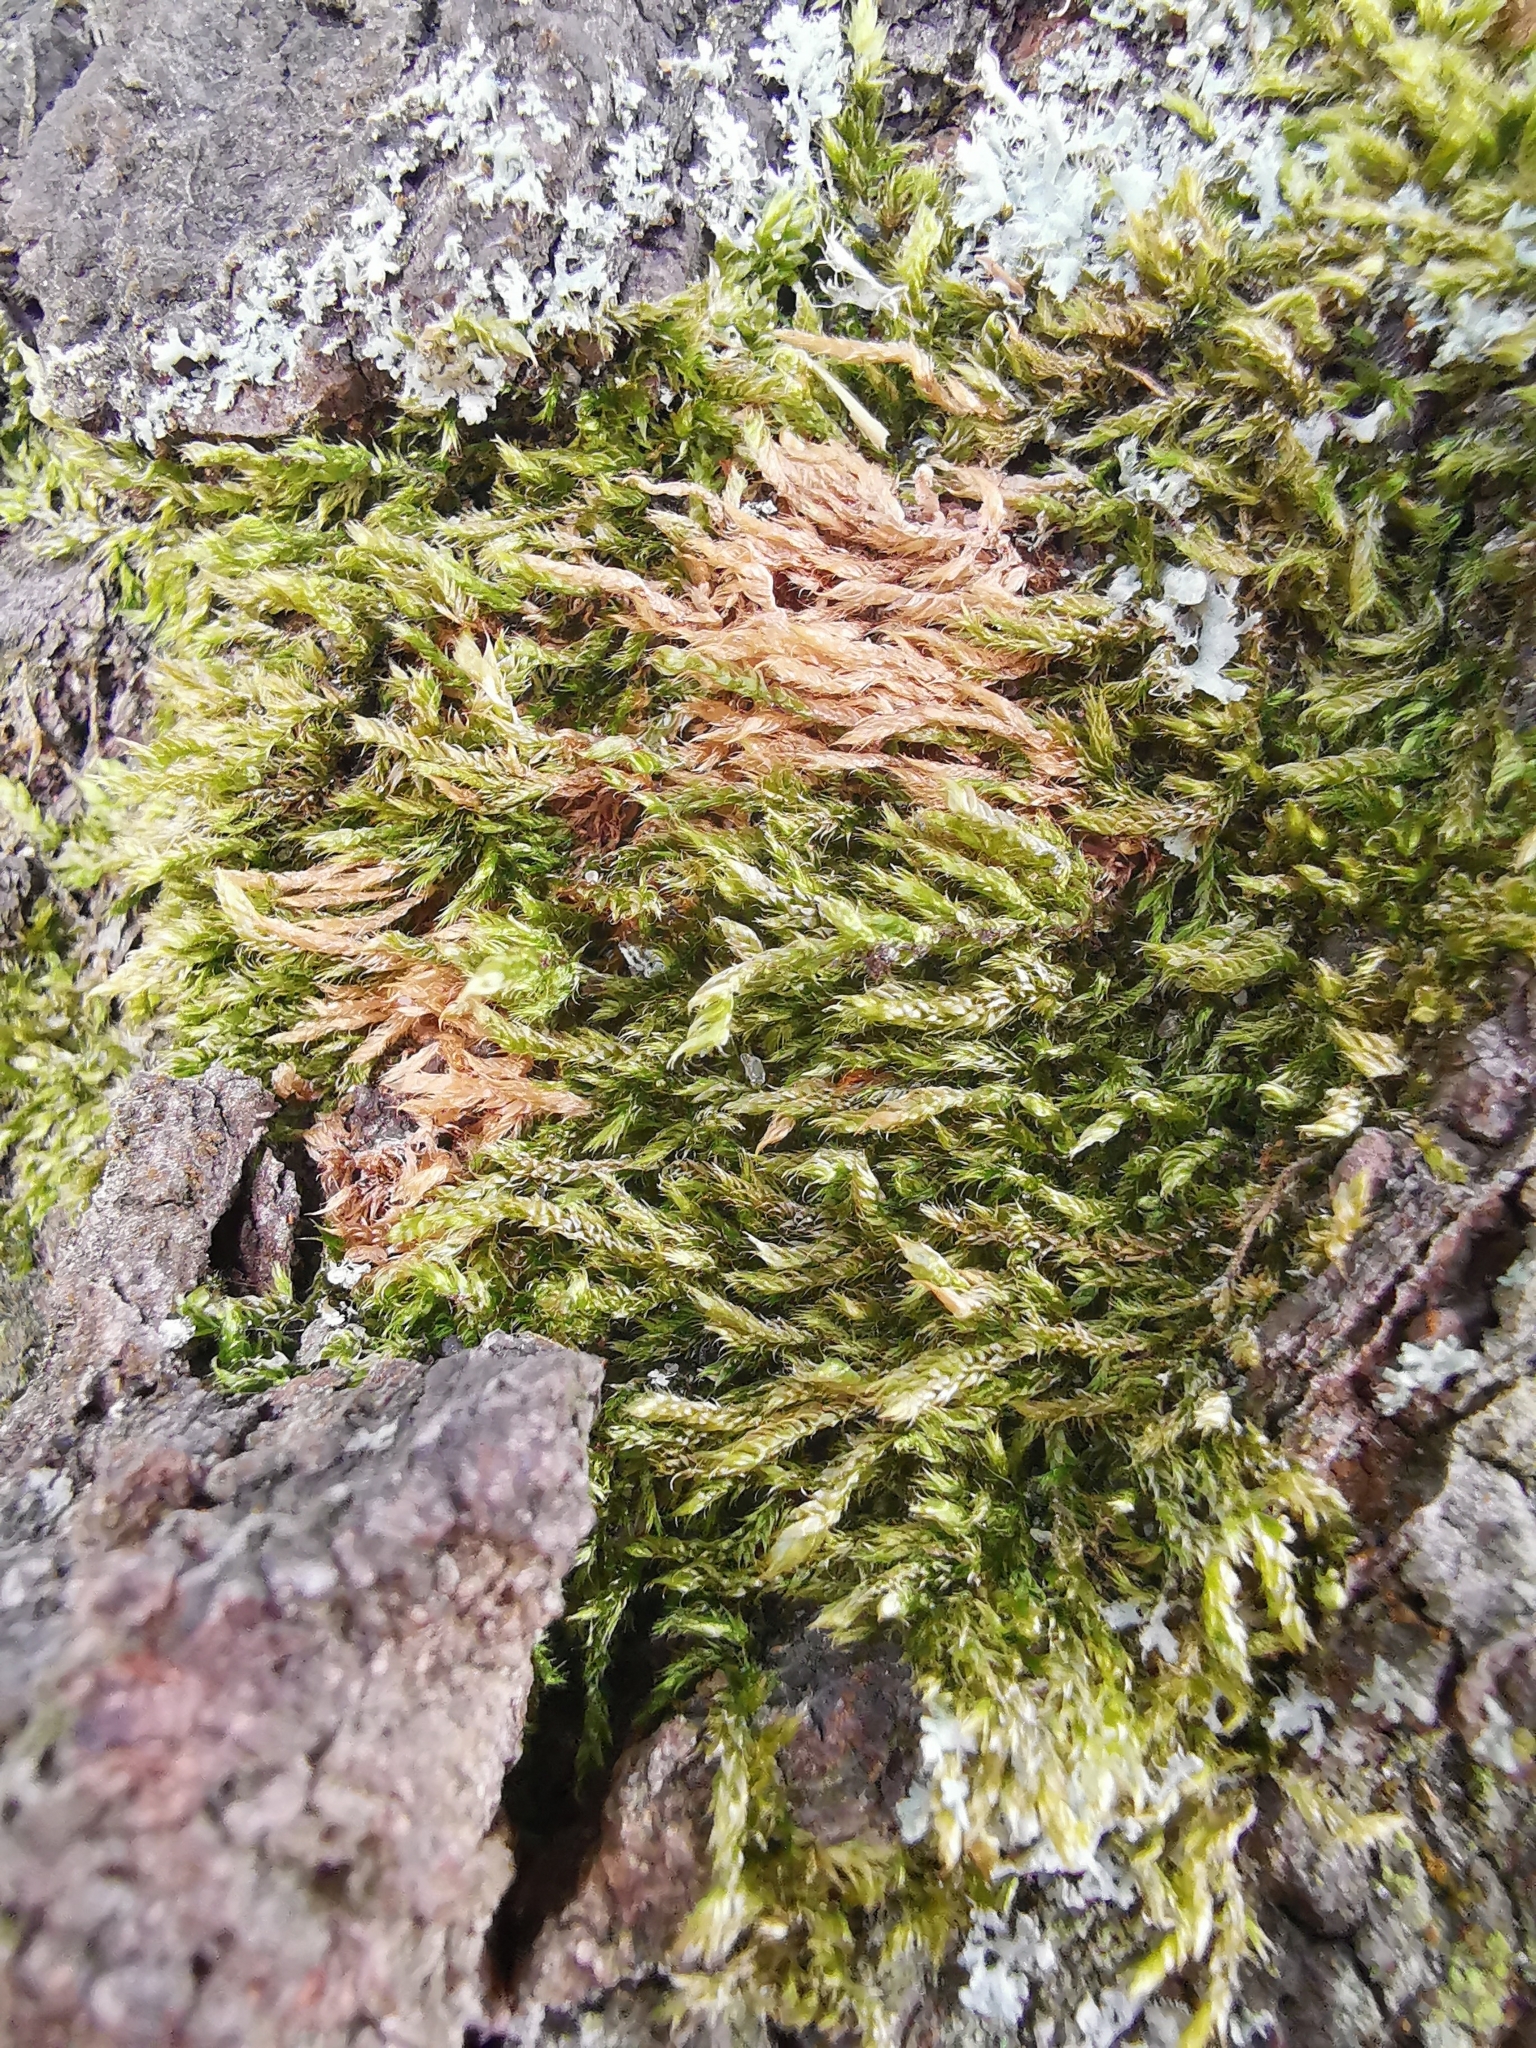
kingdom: Plantae
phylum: Bryophyta
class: Bryopsida
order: Hypnales
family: Hypnaceae
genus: Hypnum
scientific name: Hypnum cupressiforme
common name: Cypress-leaved plait-moss
